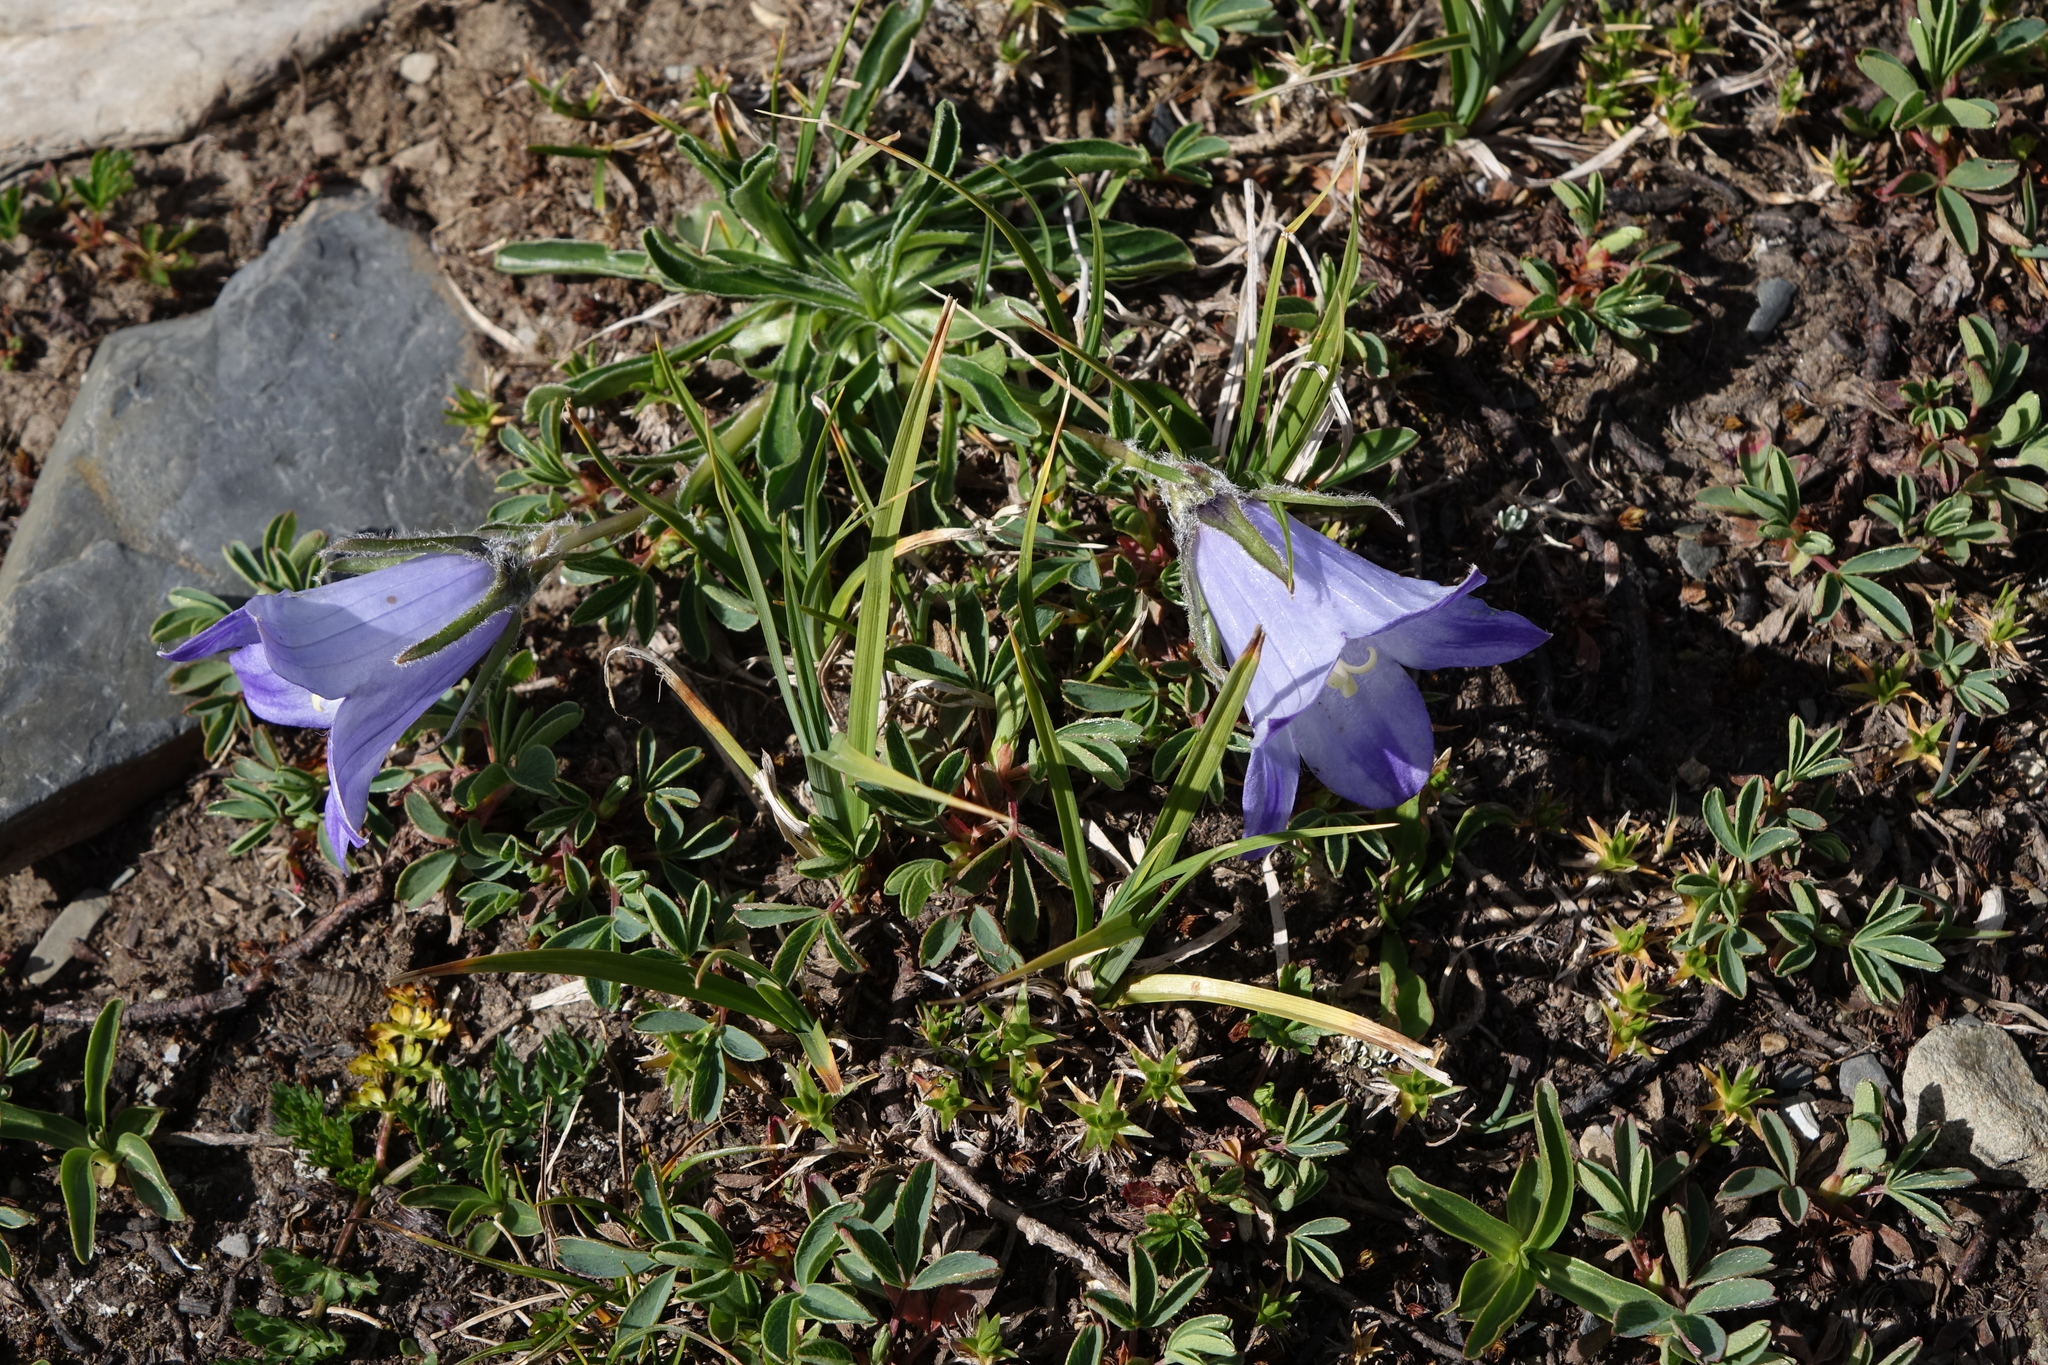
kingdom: Plantae
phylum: Tracheophyta
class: Magnoliopsida
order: Asterales
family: Campanulaceae
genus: Campanula
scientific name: Campanula tridentata
